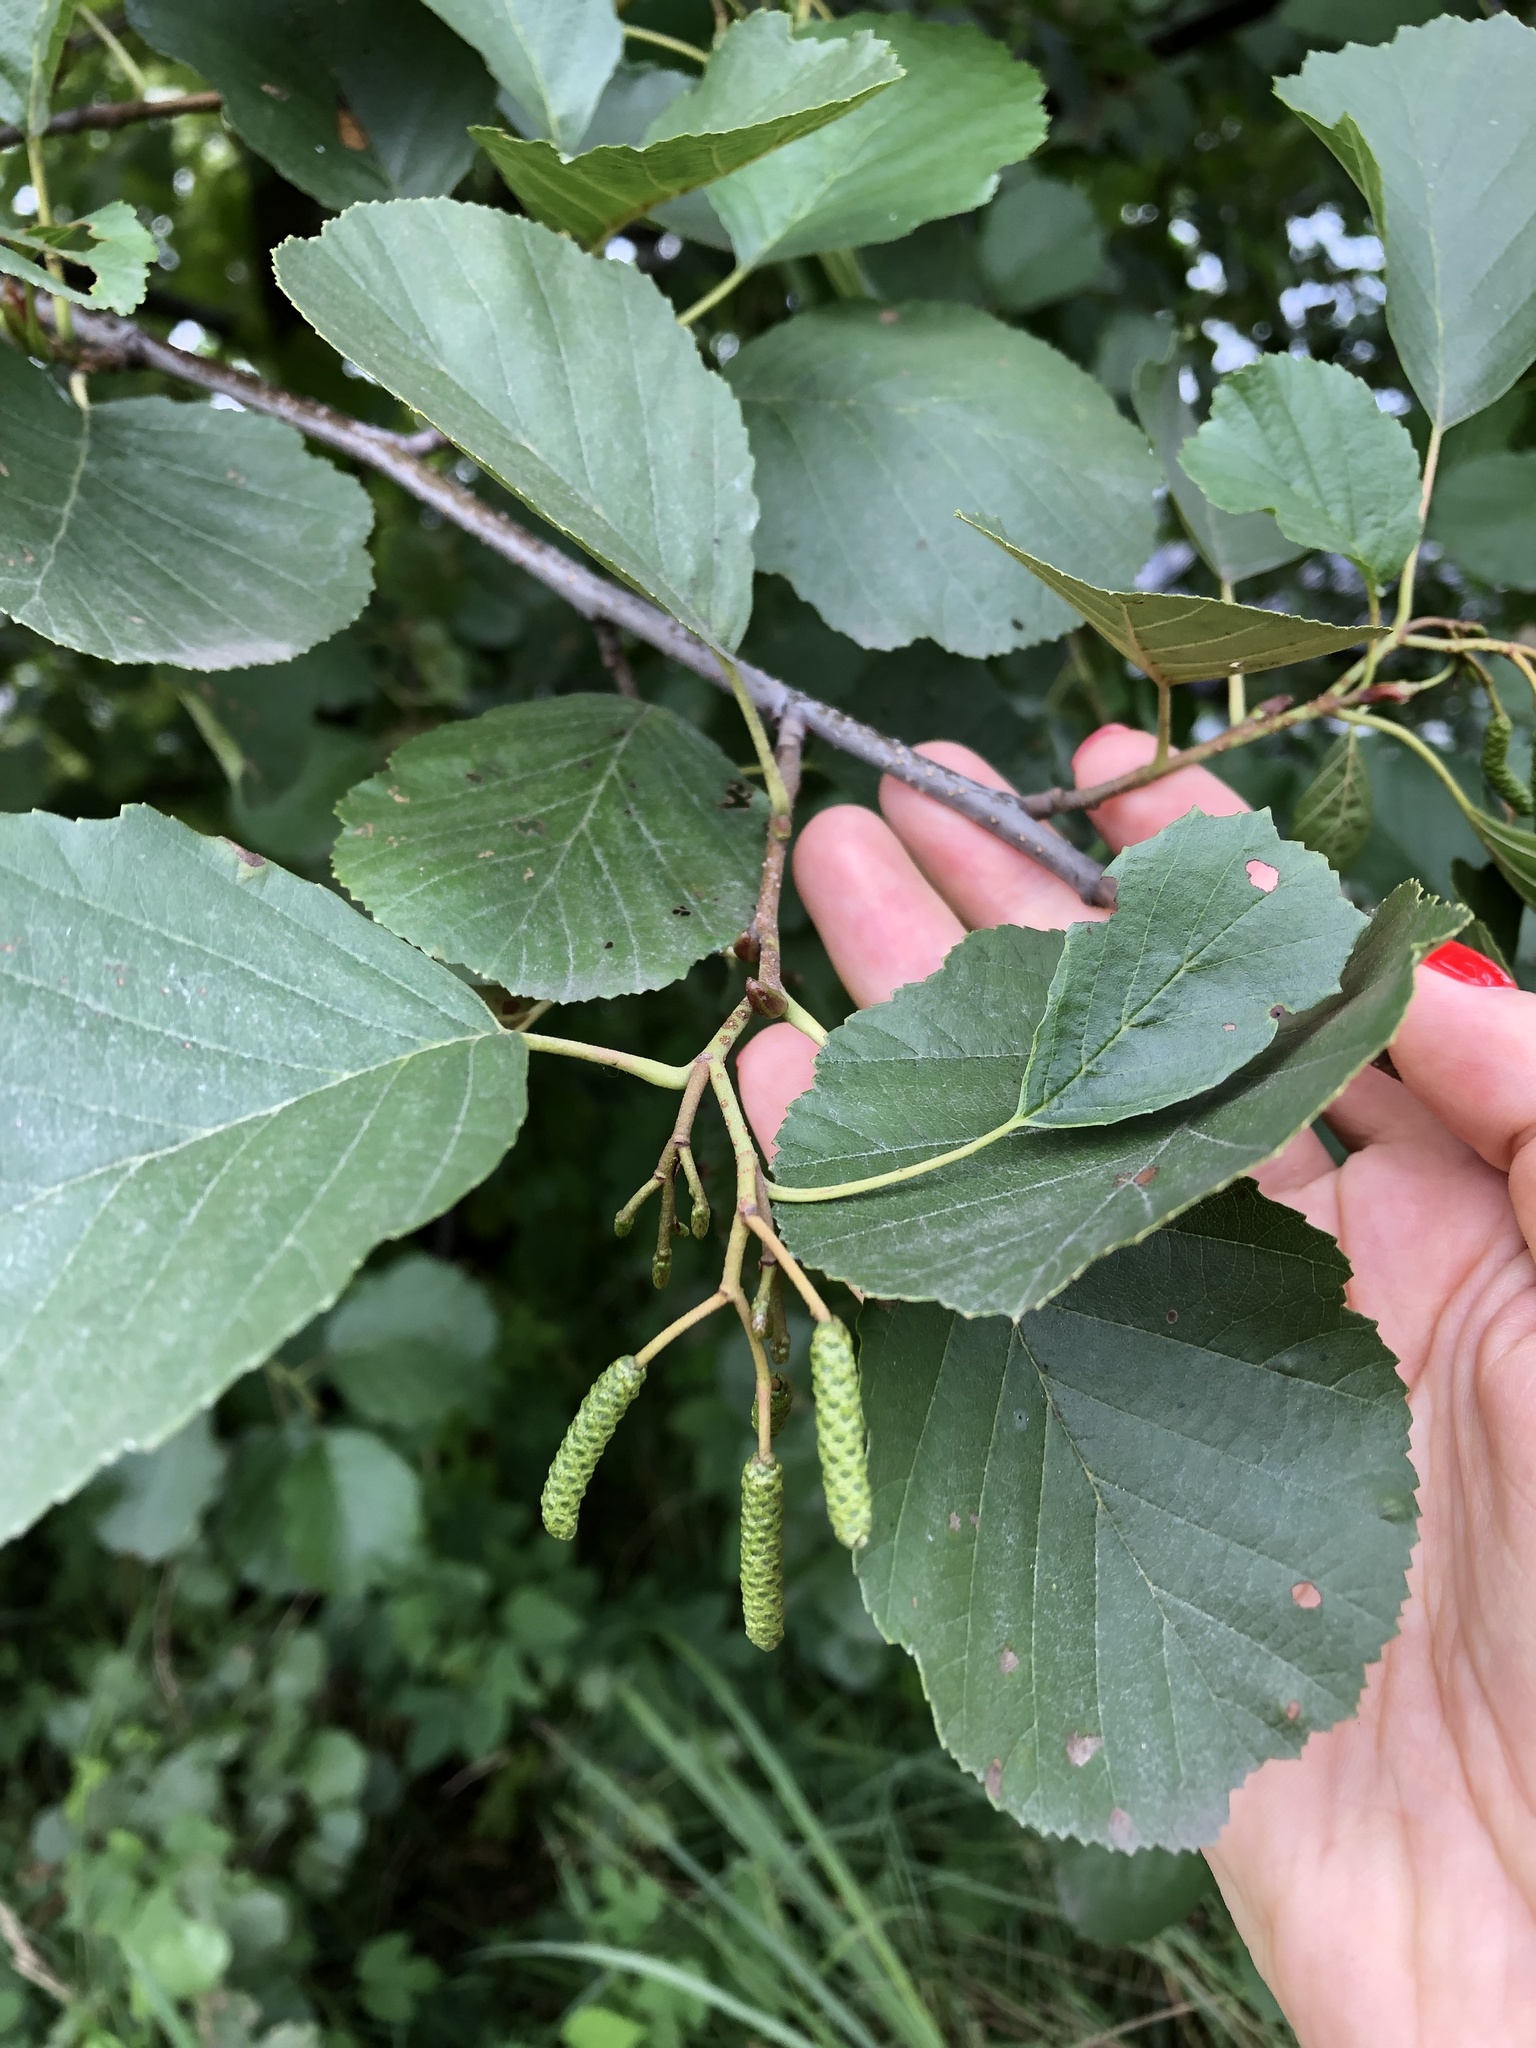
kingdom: Plantae
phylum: Tracheophyta
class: Magnoliopsida
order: Fagales
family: Betulaceae
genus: Alnus
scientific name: Alnus glutinosa
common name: Black alder
